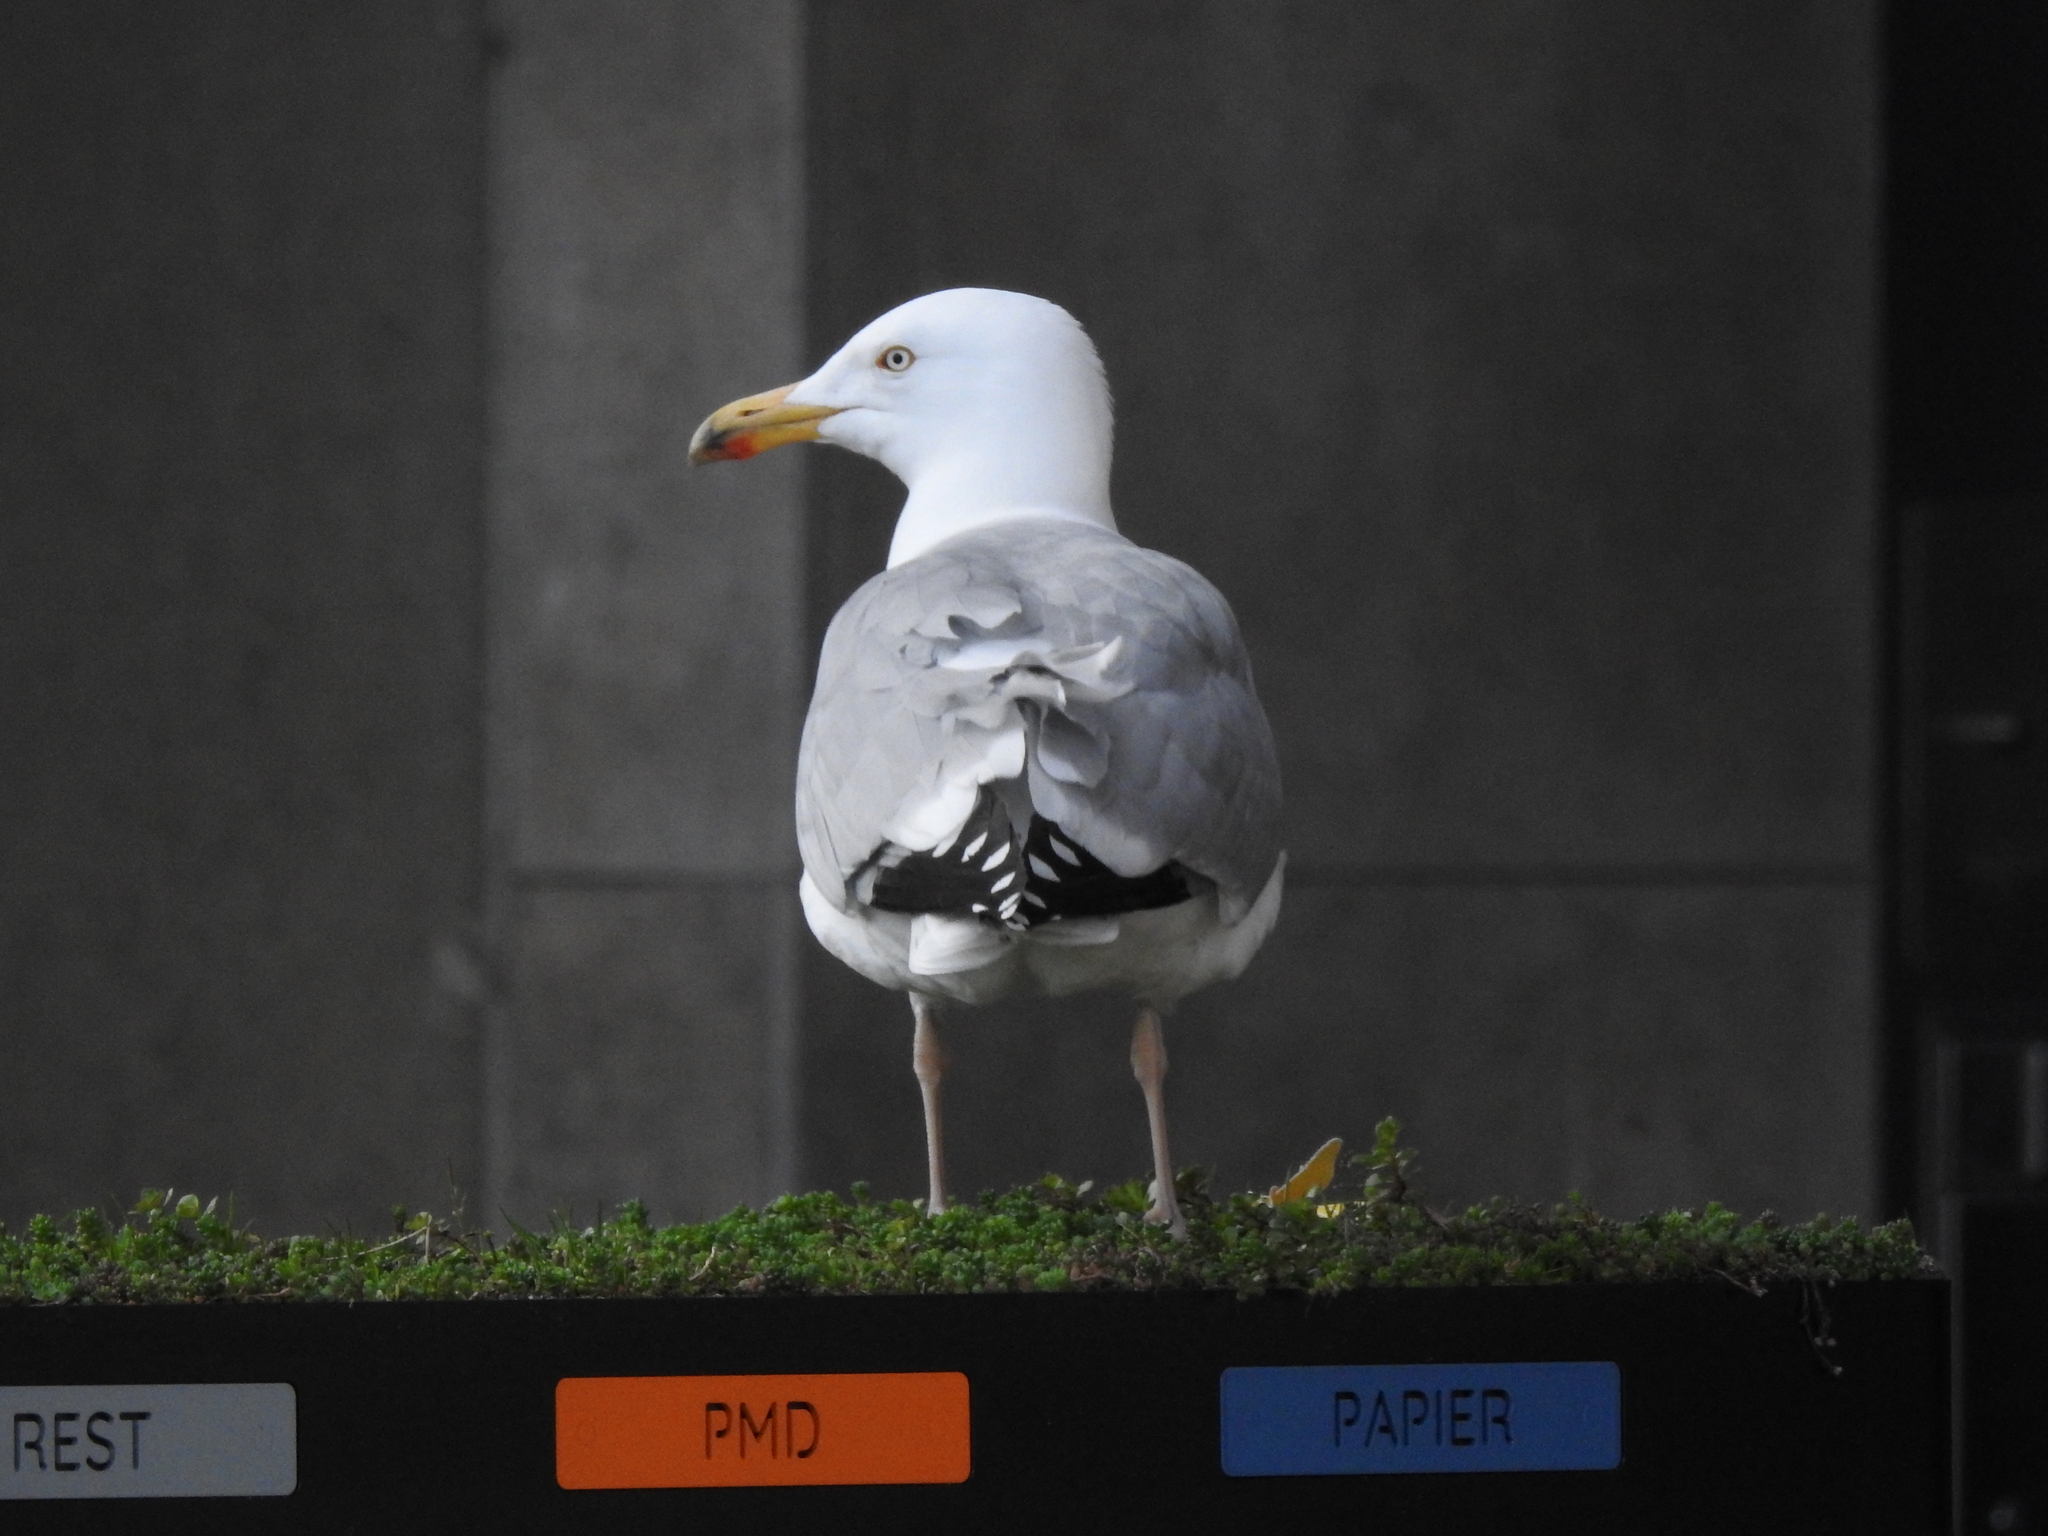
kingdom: Animalia
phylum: Chordata
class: Aves
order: Charadriiformes
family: Laridae
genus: Larus
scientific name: Larus argentatus
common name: Herring gull
